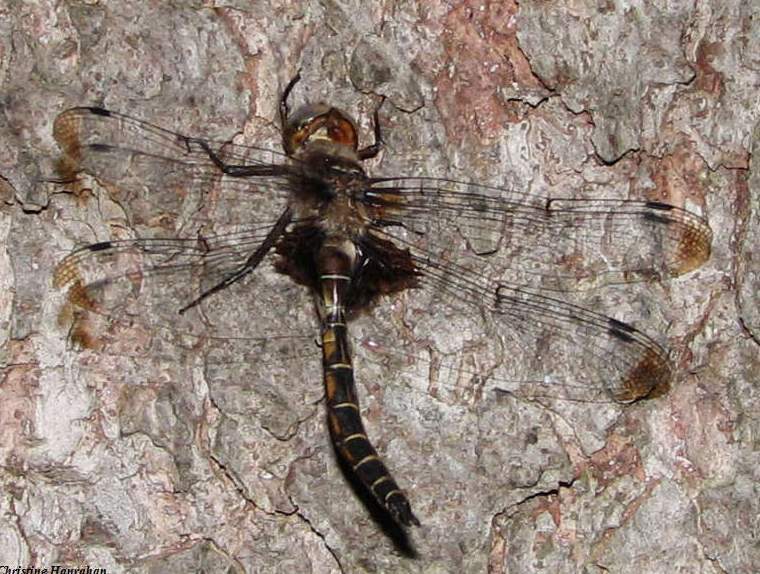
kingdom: Animalia
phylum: Arthropoda
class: Insecta
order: Odonata
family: Corduliidae
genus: Epitheca
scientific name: Epitheca princeps
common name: Prince baskettail
